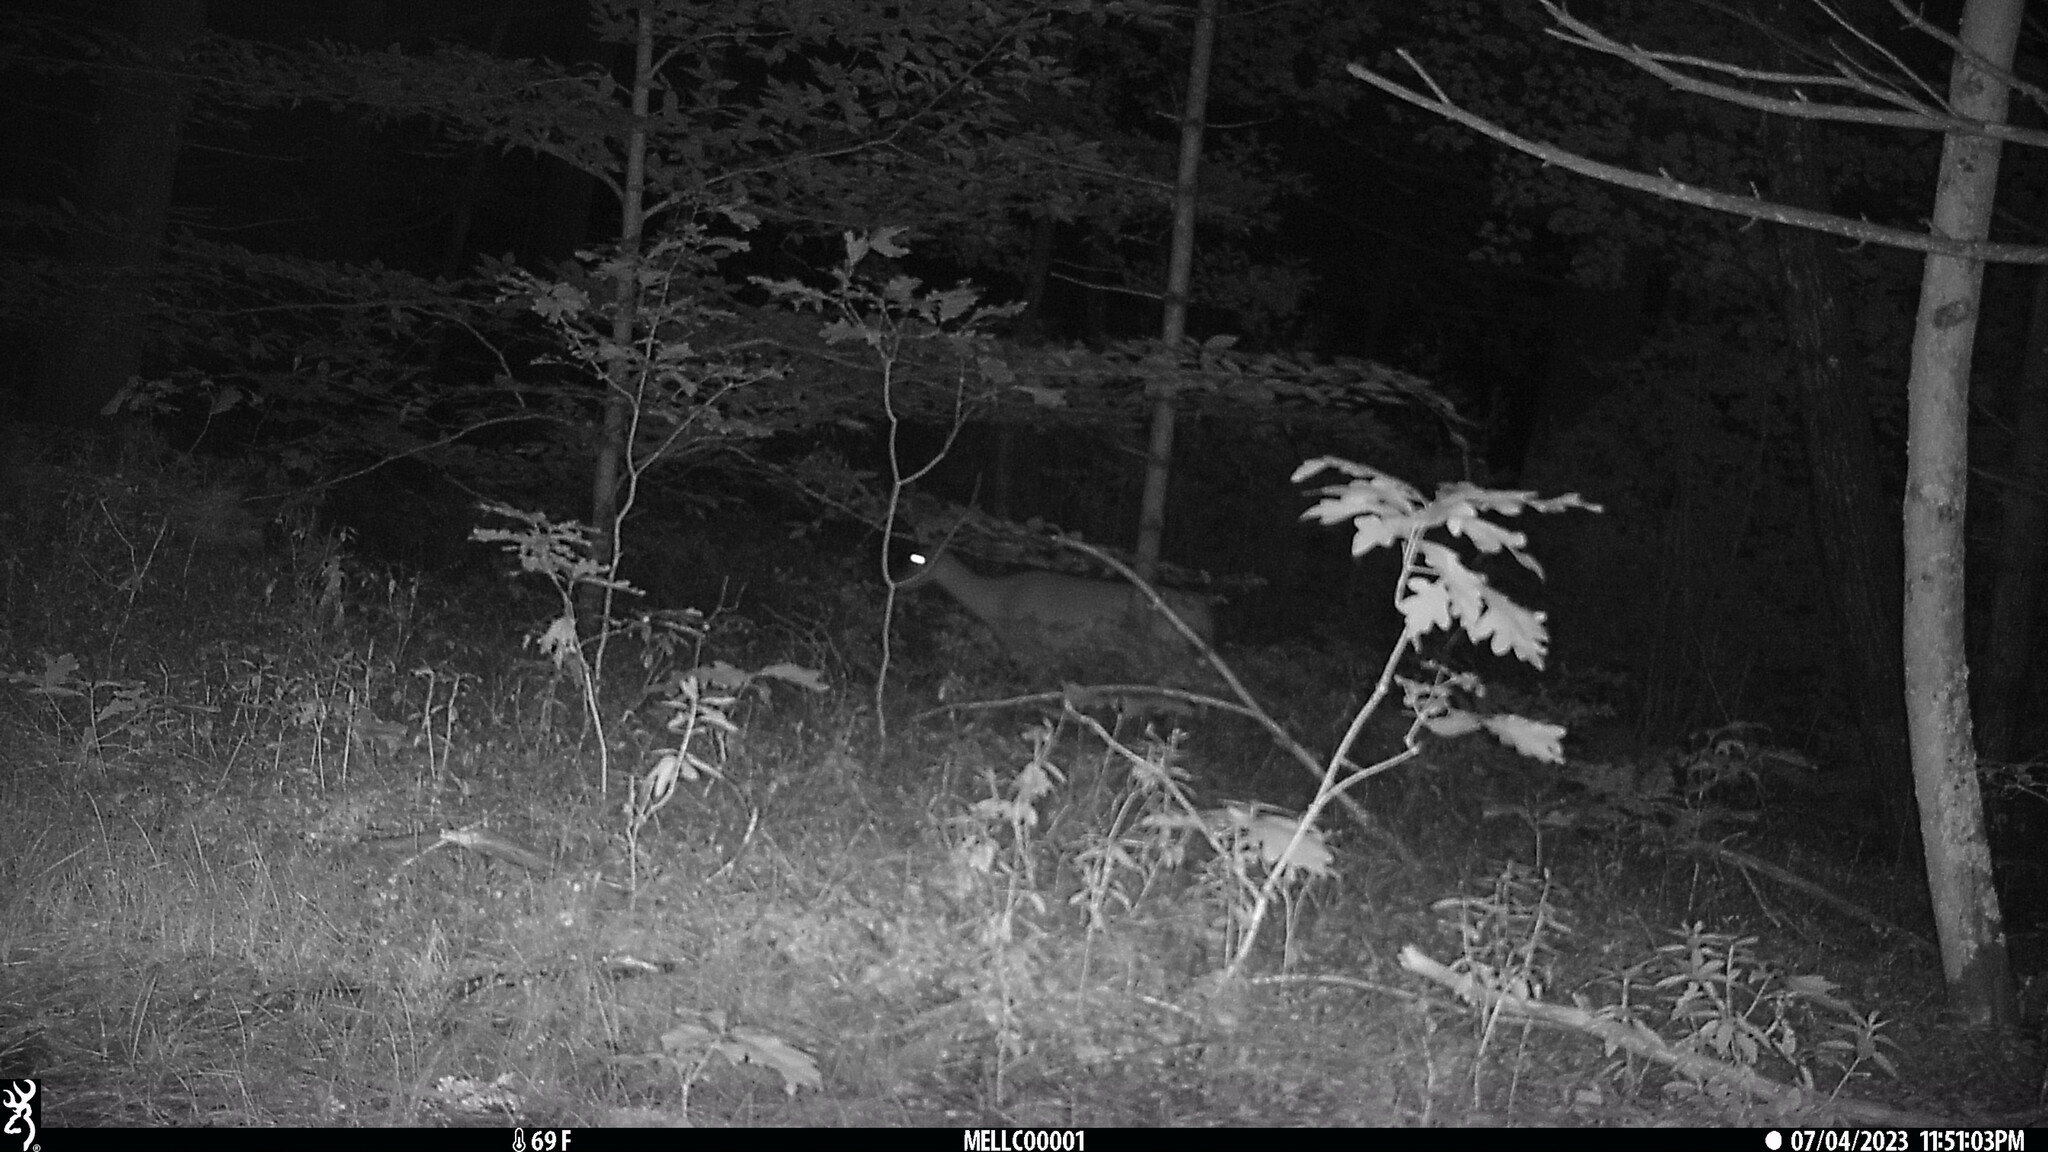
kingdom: Animalia
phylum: Chordata
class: Mammalia
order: Artiodactyla
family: Cervidae
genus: Odocoileus
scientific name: Odocoileus virginianus
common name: White-tailed deer
